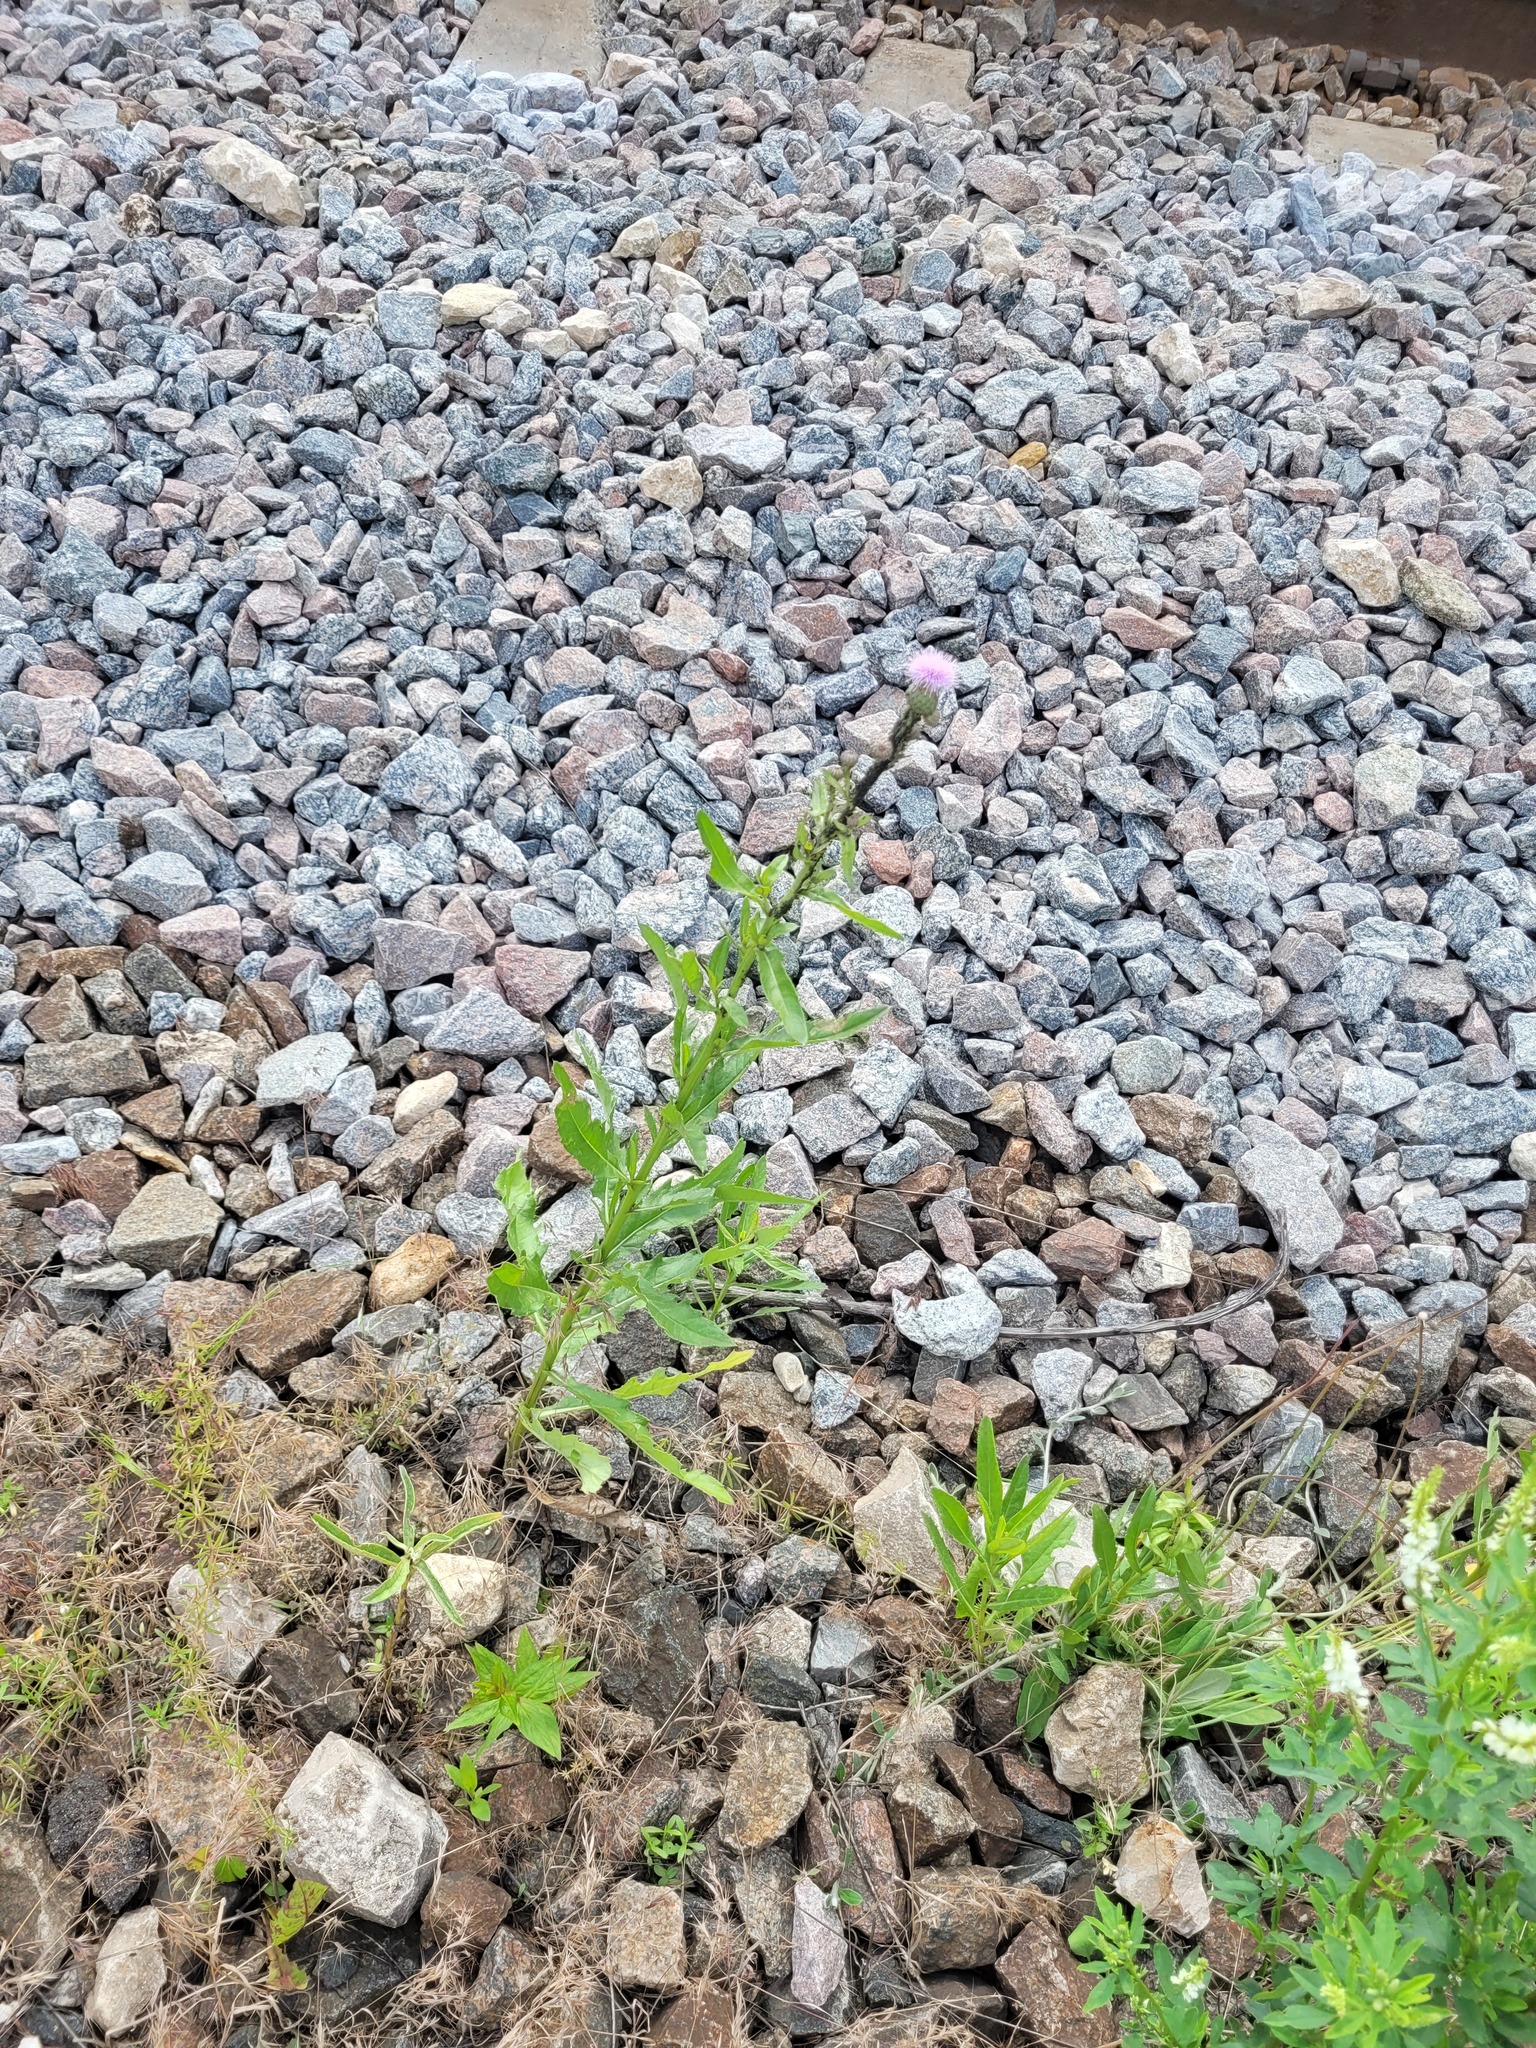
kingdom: Plantae
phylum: Tracheophyta
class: Magnoliopsida
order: Asterales
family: Asteraceae
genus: Cirsium
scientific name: Cirsium arvense
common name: Creeping thistle
